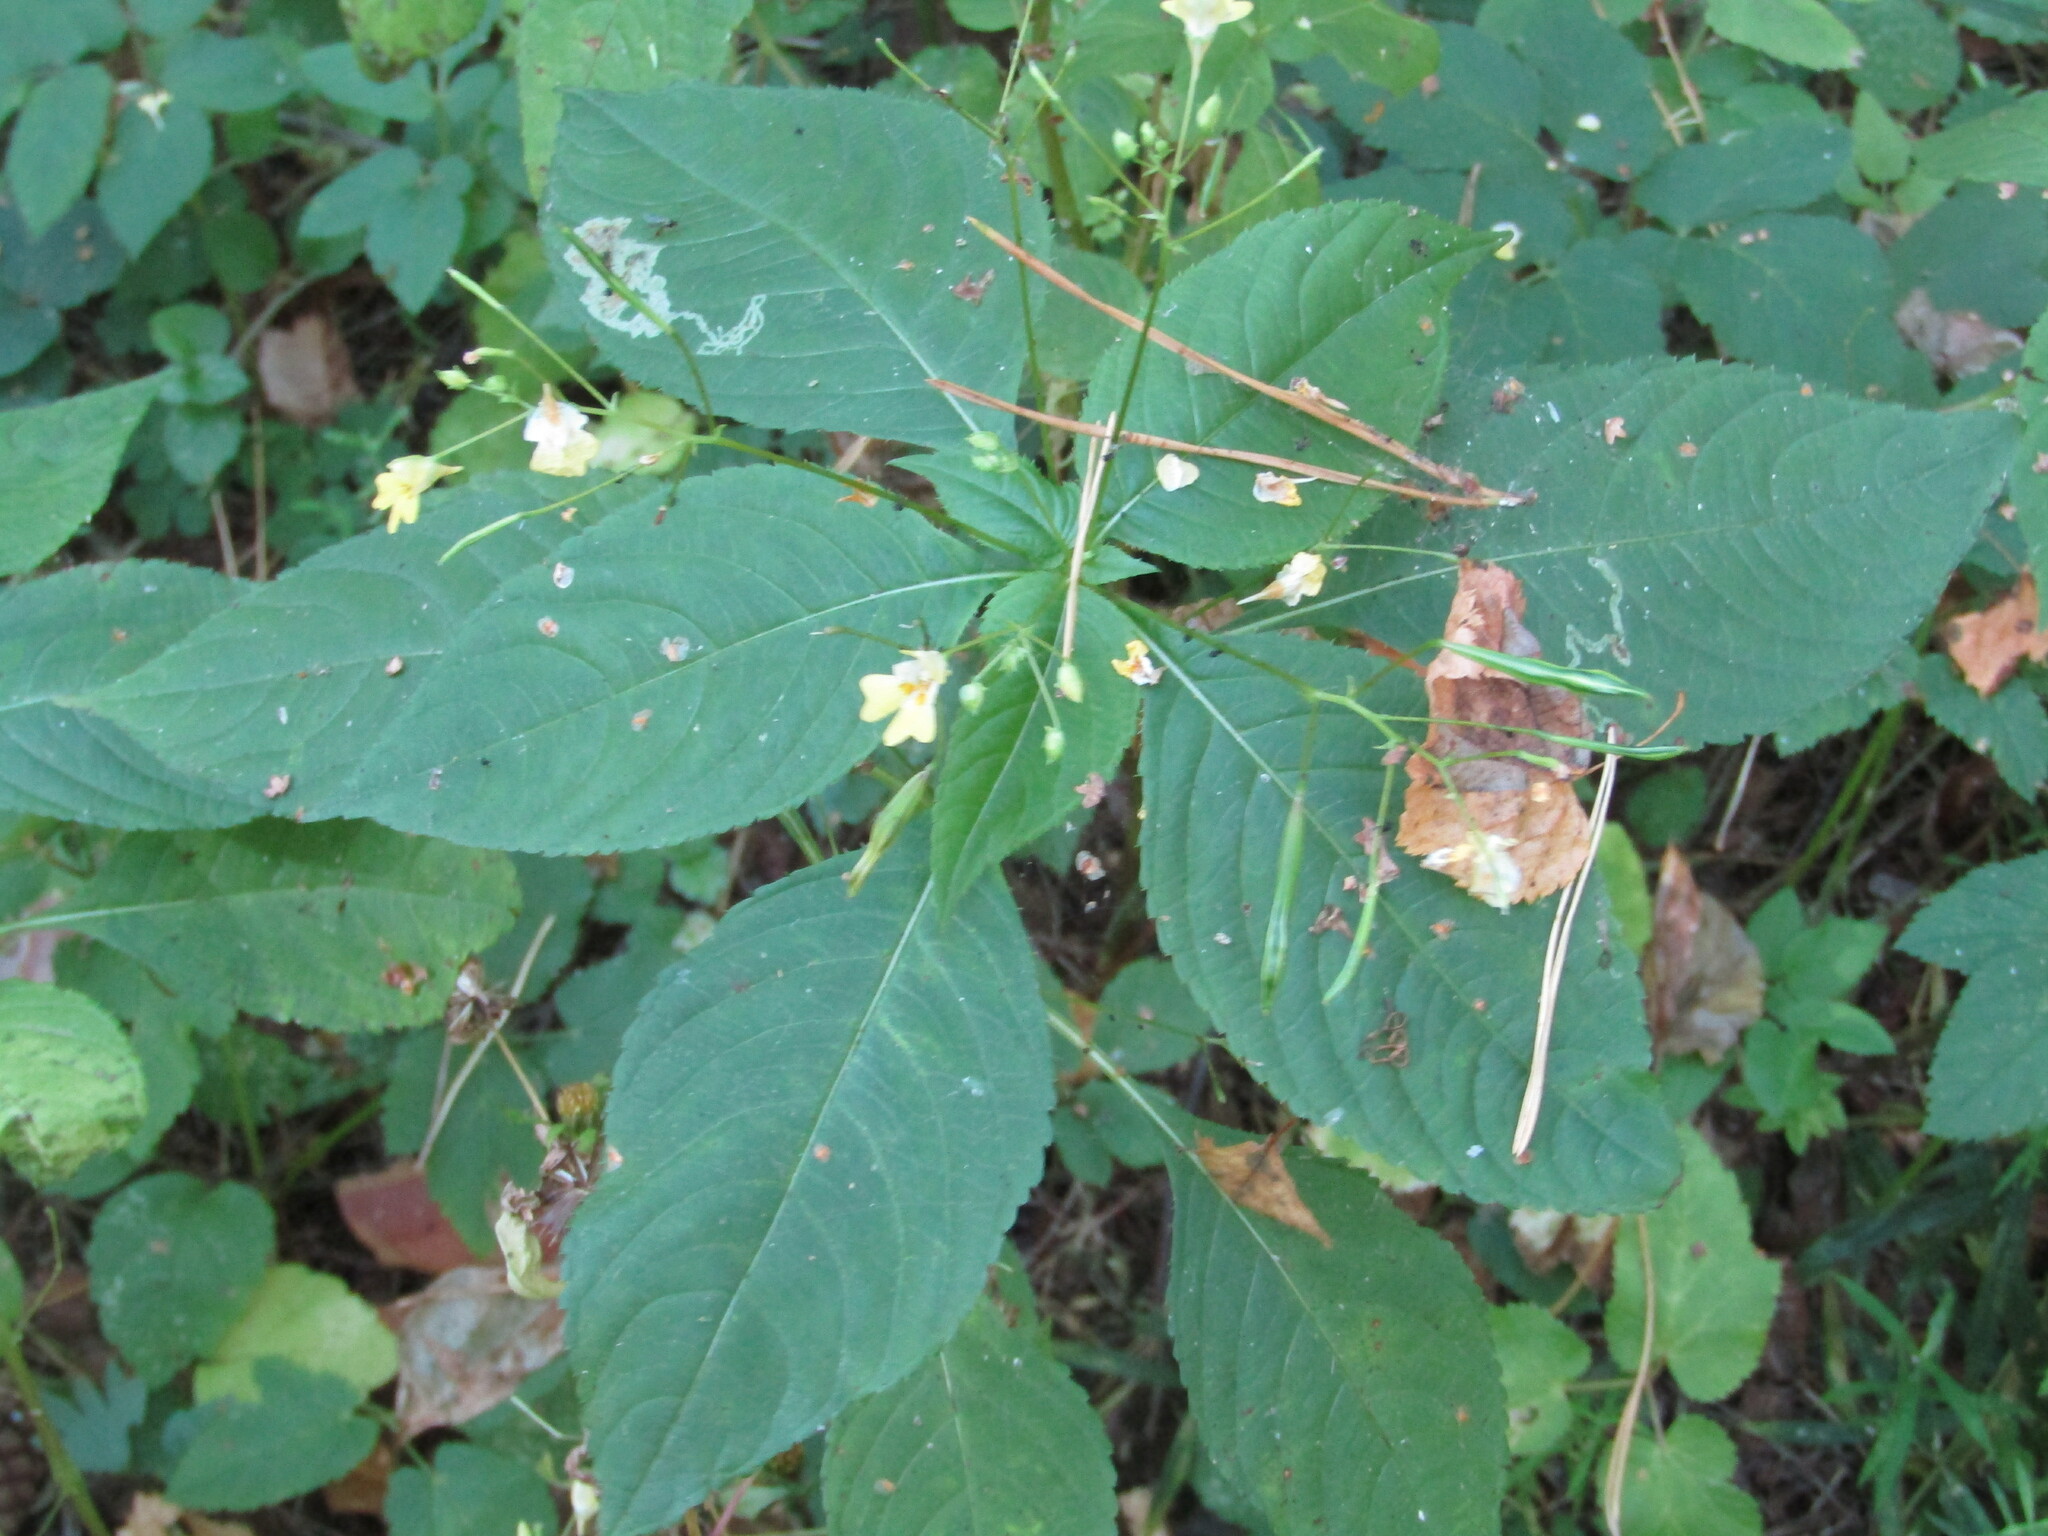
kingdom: Plantae
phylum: Tracheophyta
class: Magnoliopsida
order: Ericales
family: Balsaminaceae
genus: Impatiens
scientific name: Impatiens parviflora
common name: Small balsam
